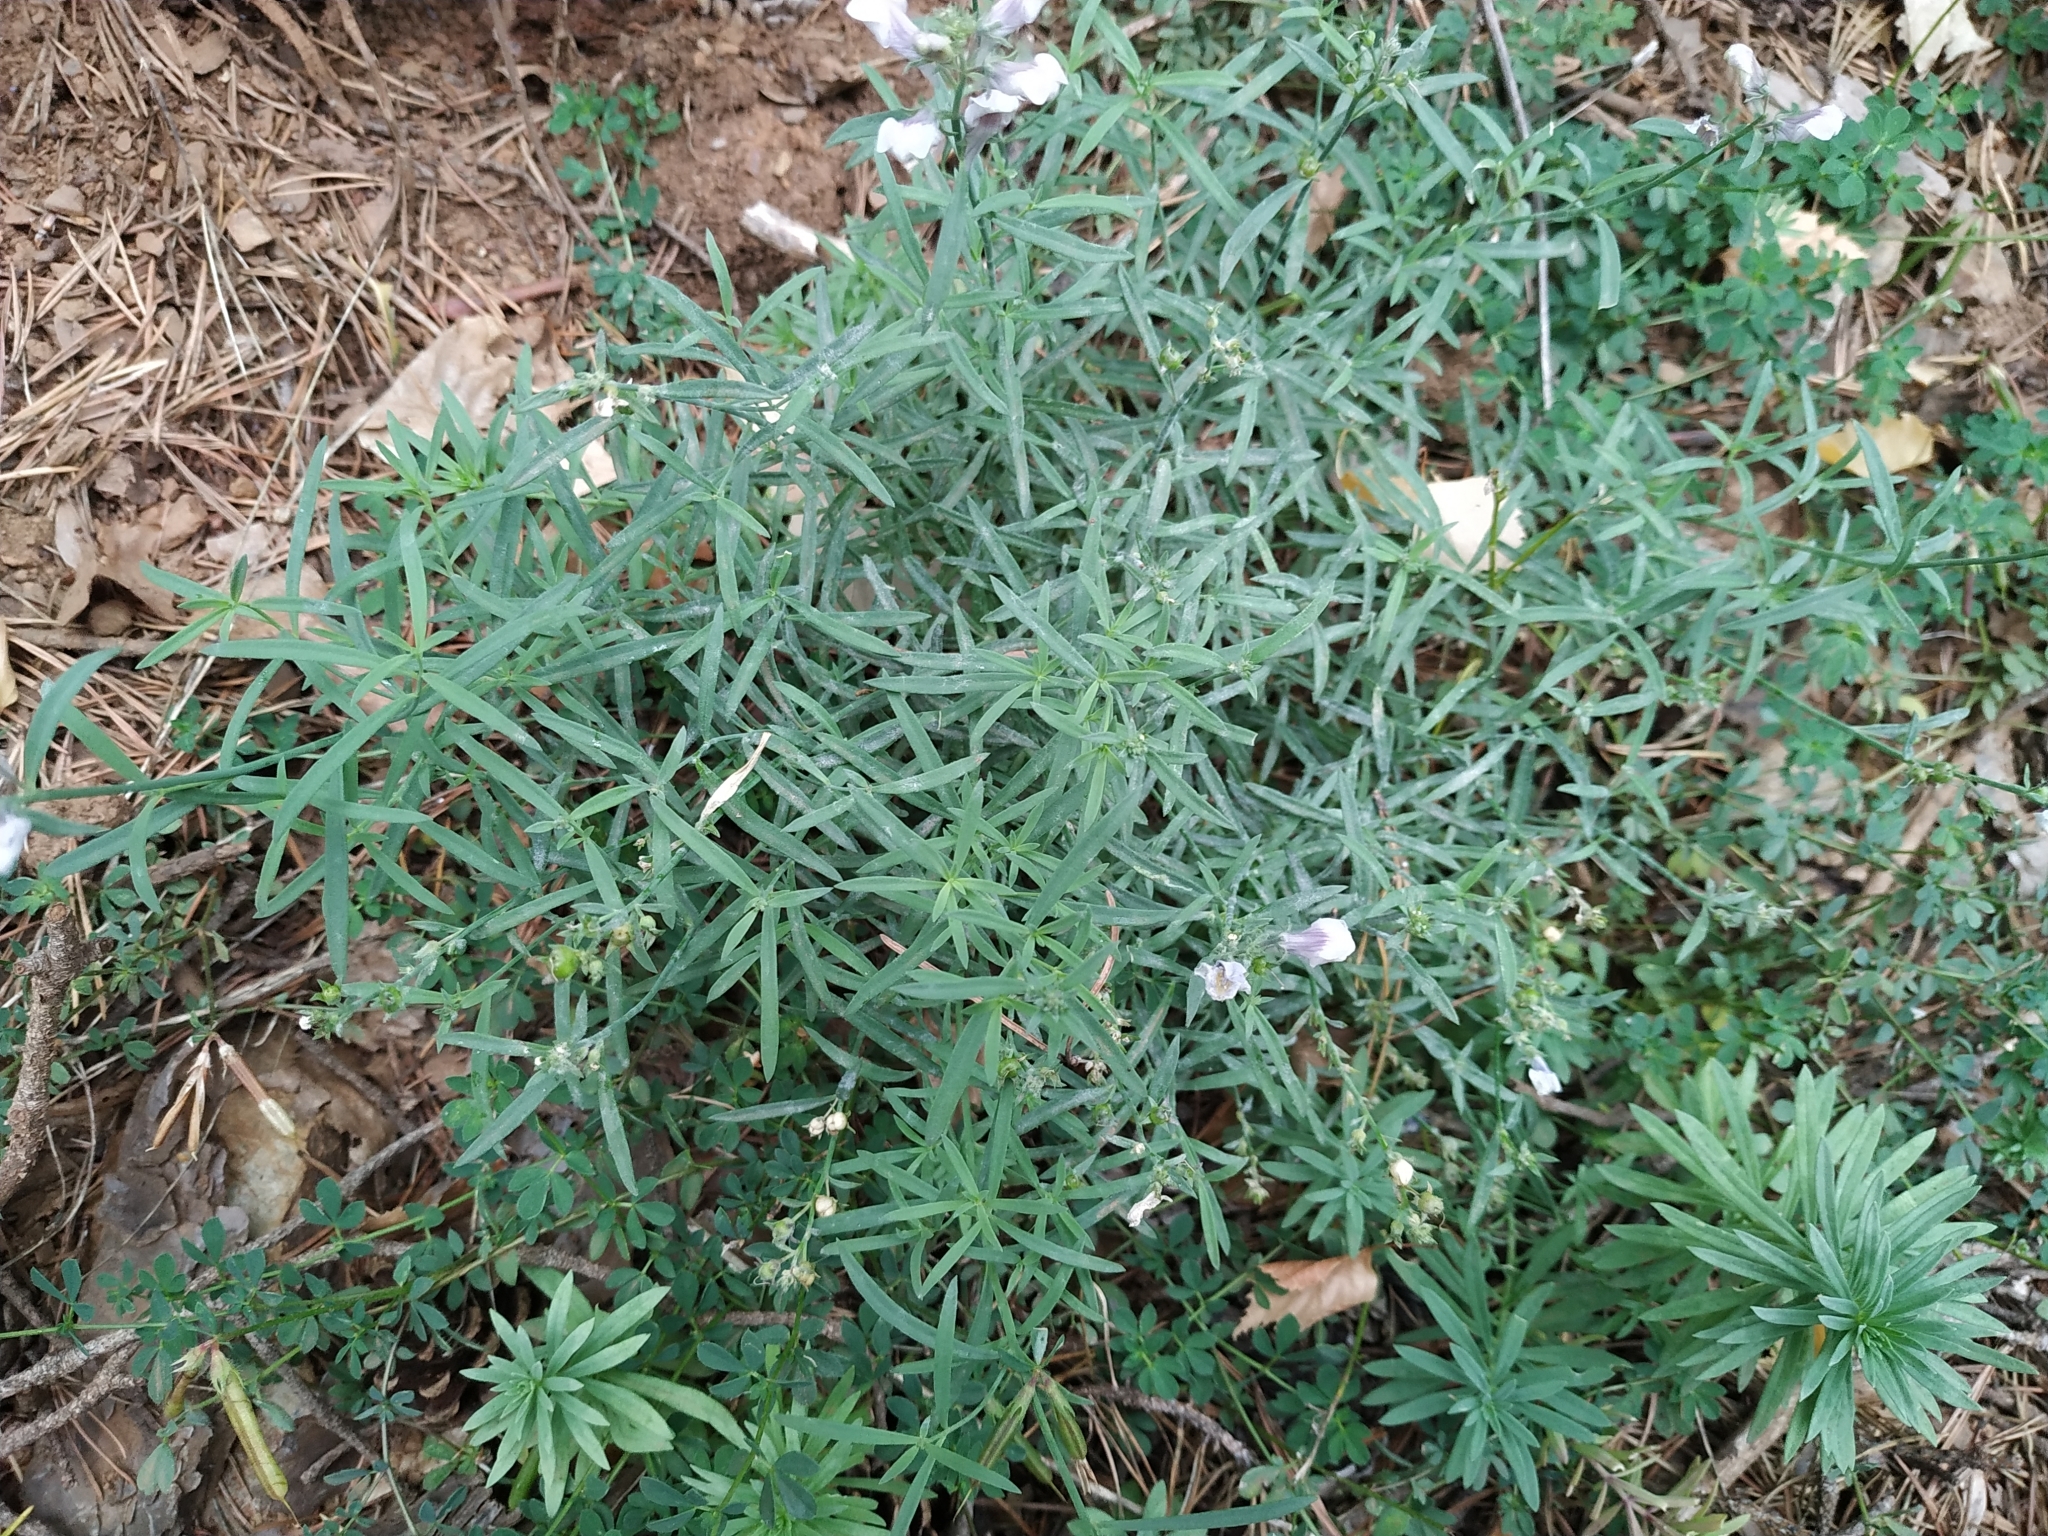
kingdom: Plantae
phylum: Tracheophyta
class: Magnoliopsida
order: Lamiales
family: Plantaginaceae
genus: Linaria
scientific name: Linaria repens
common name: Pale toadflax
